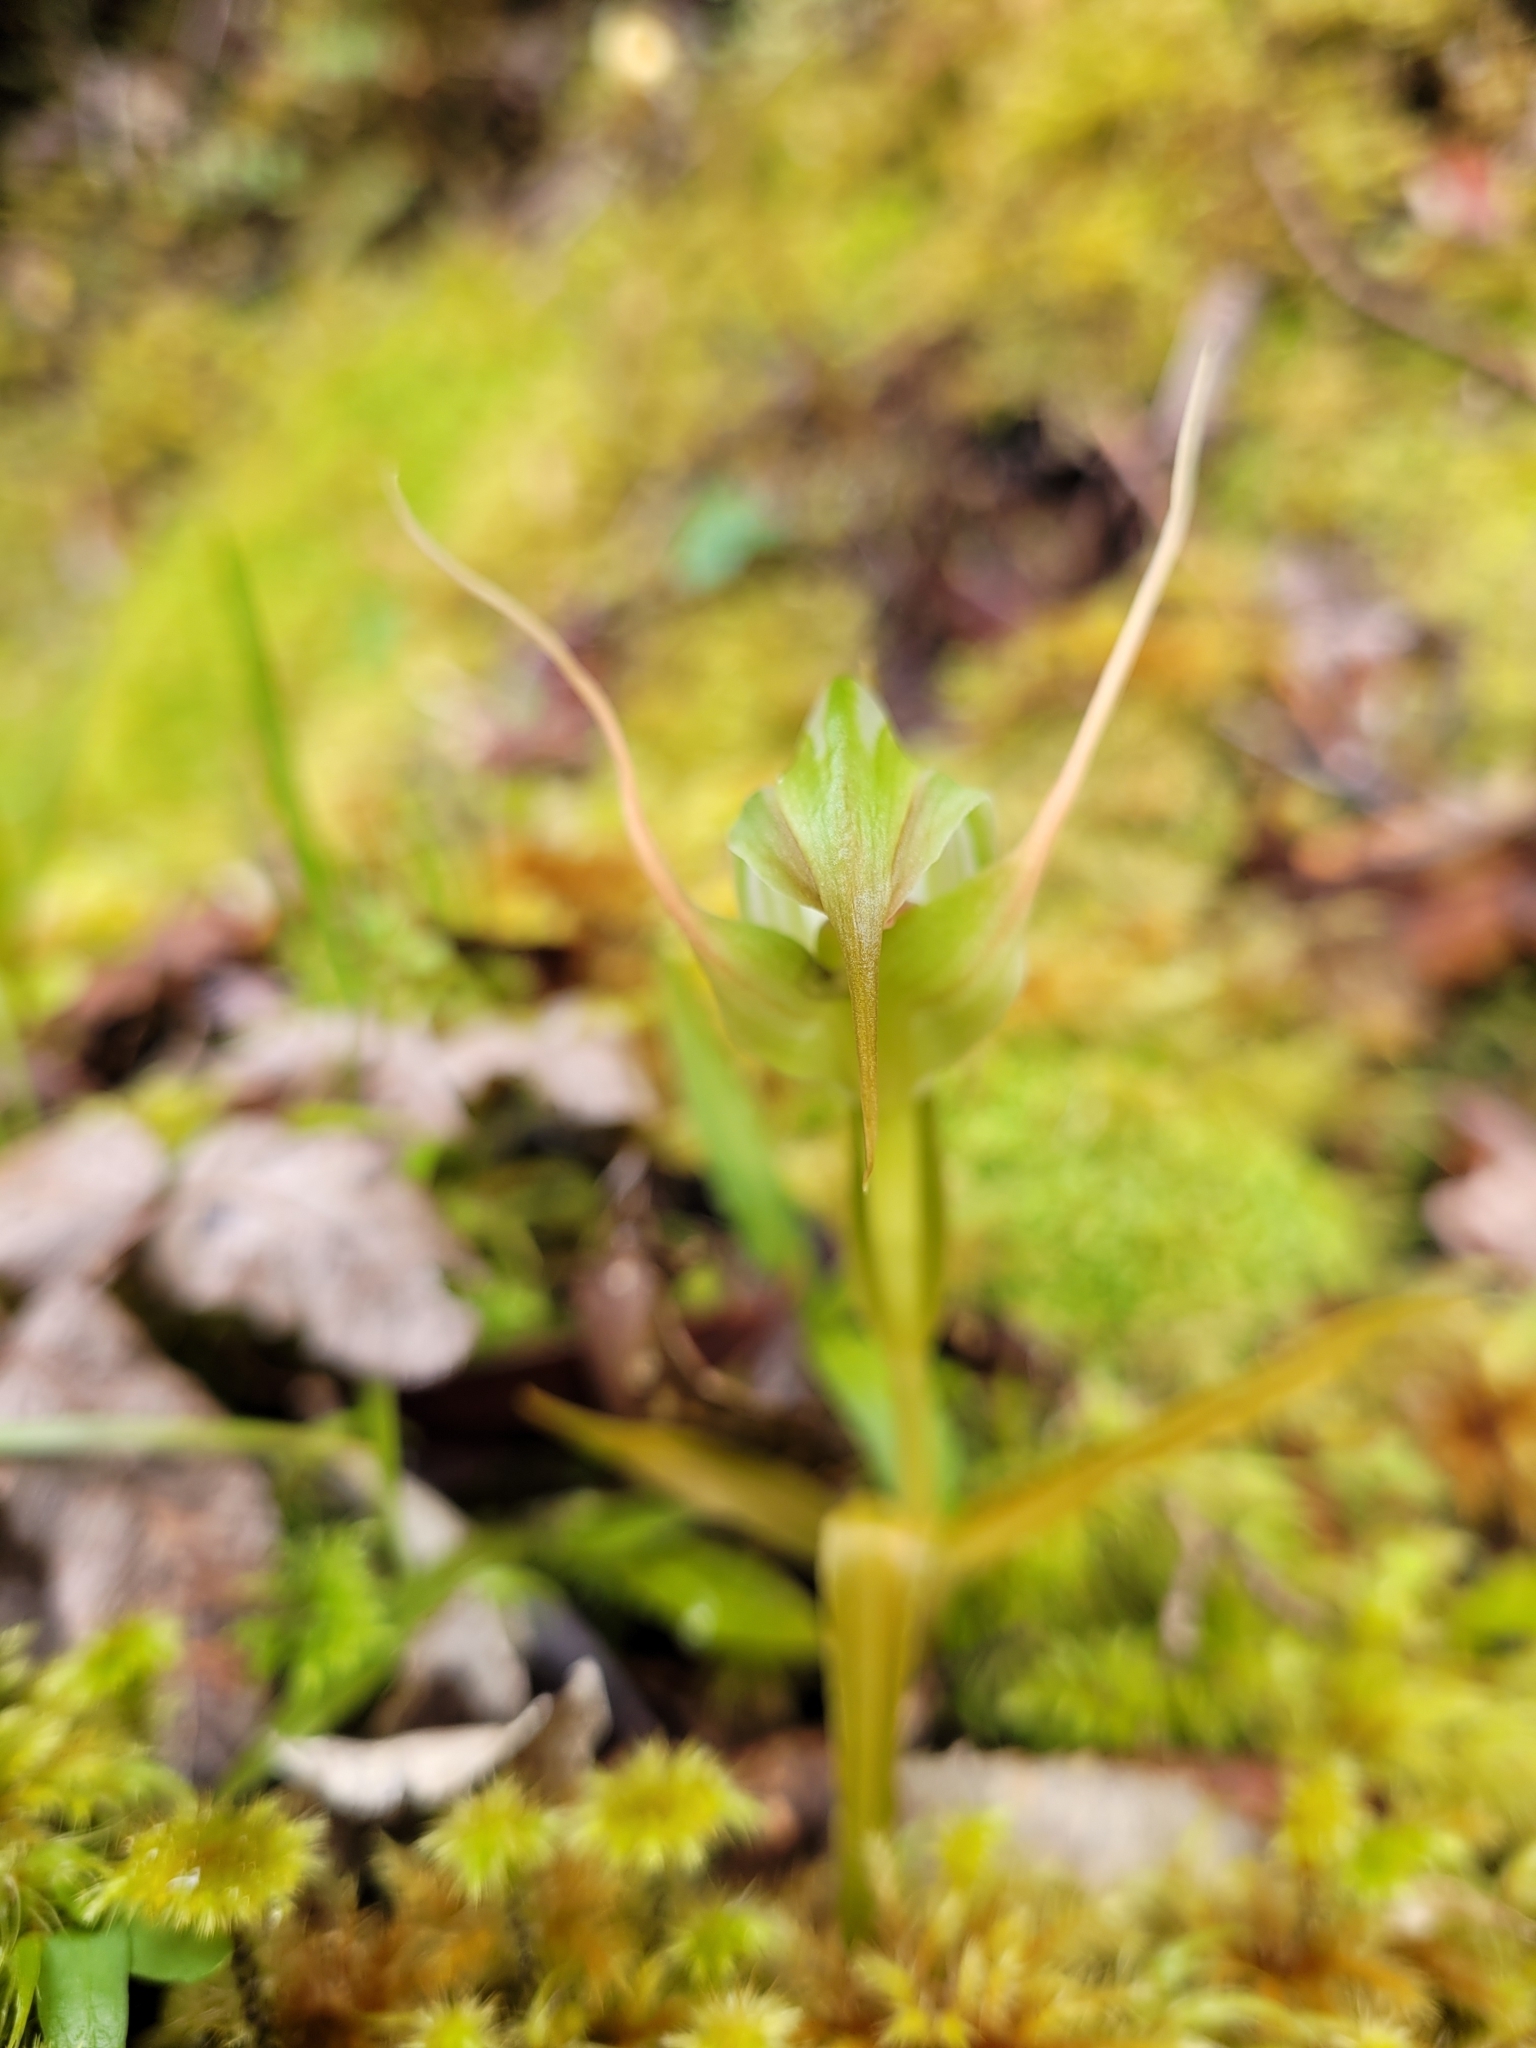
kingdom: Plantae
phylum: Tracheophyta
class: Liliopsida
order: Asparagales
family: Orchidaceae
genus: Pterostylis
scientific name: Pterostylis australis
